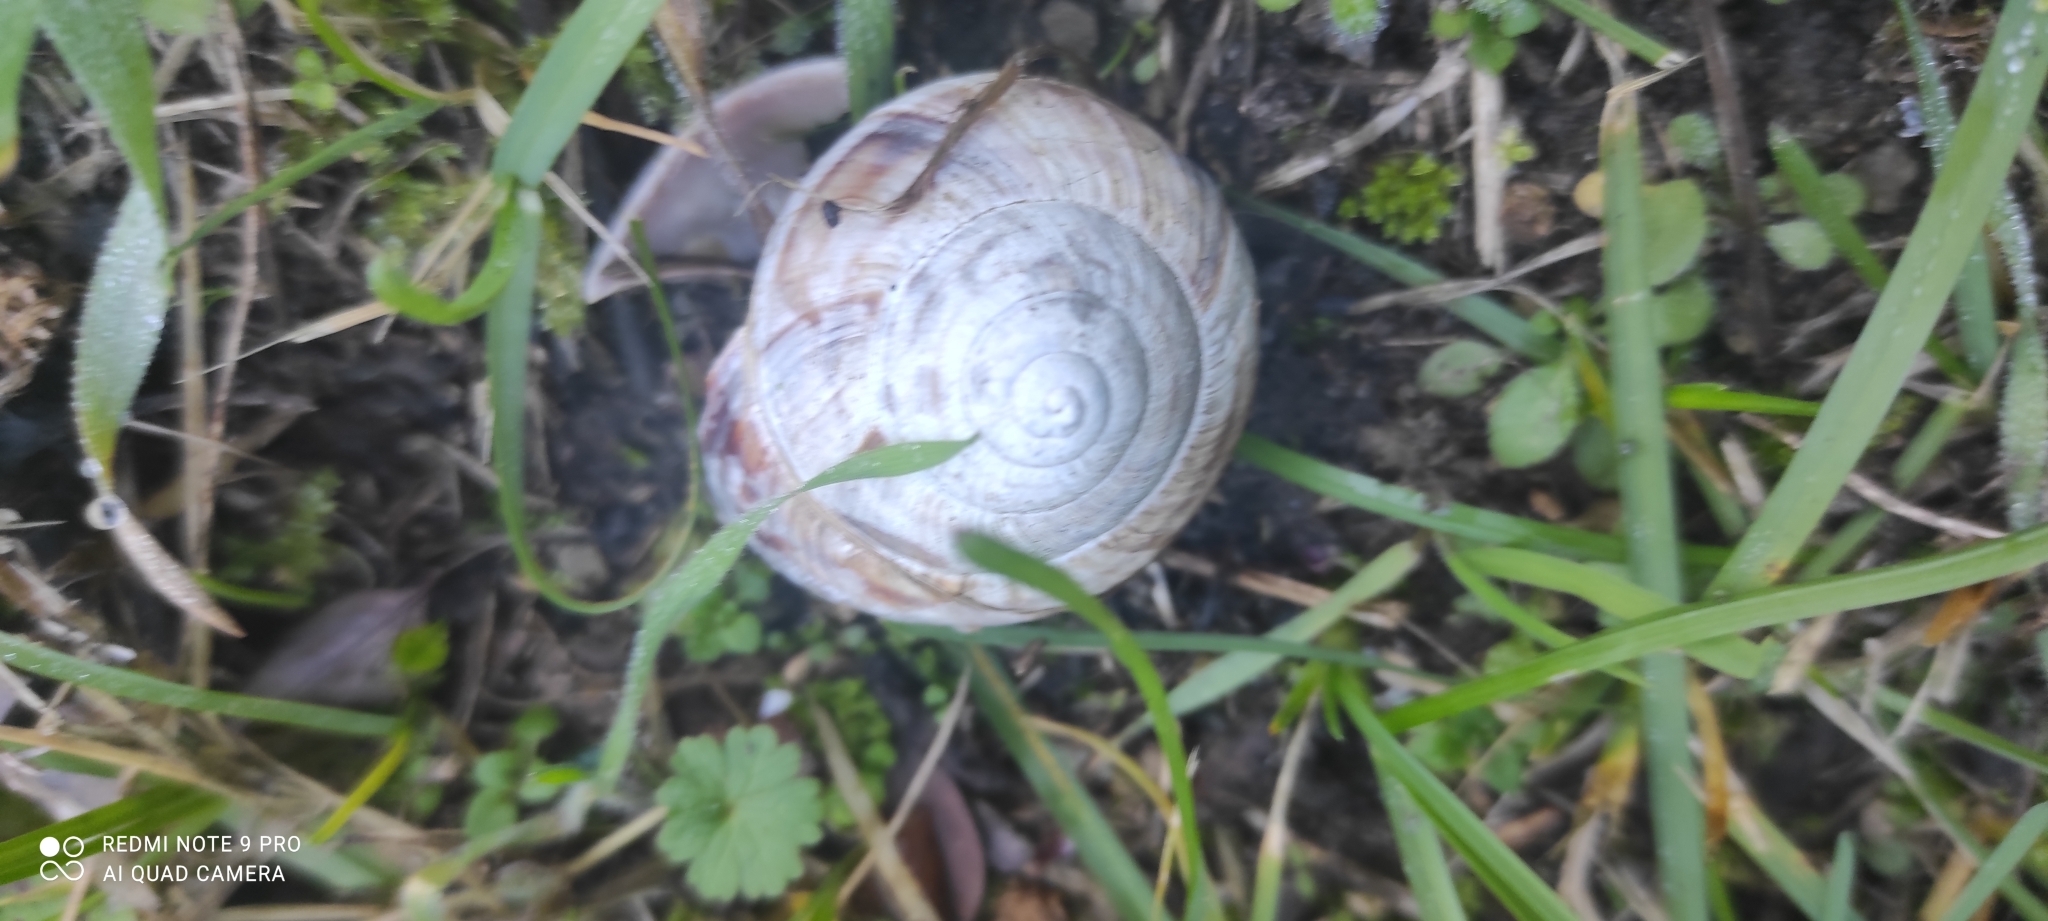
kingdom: Animalia
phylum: Mollusca
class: Gastropoda
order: Stylommatophora
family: Helicidae
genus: Helix
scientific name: Helix straminea
